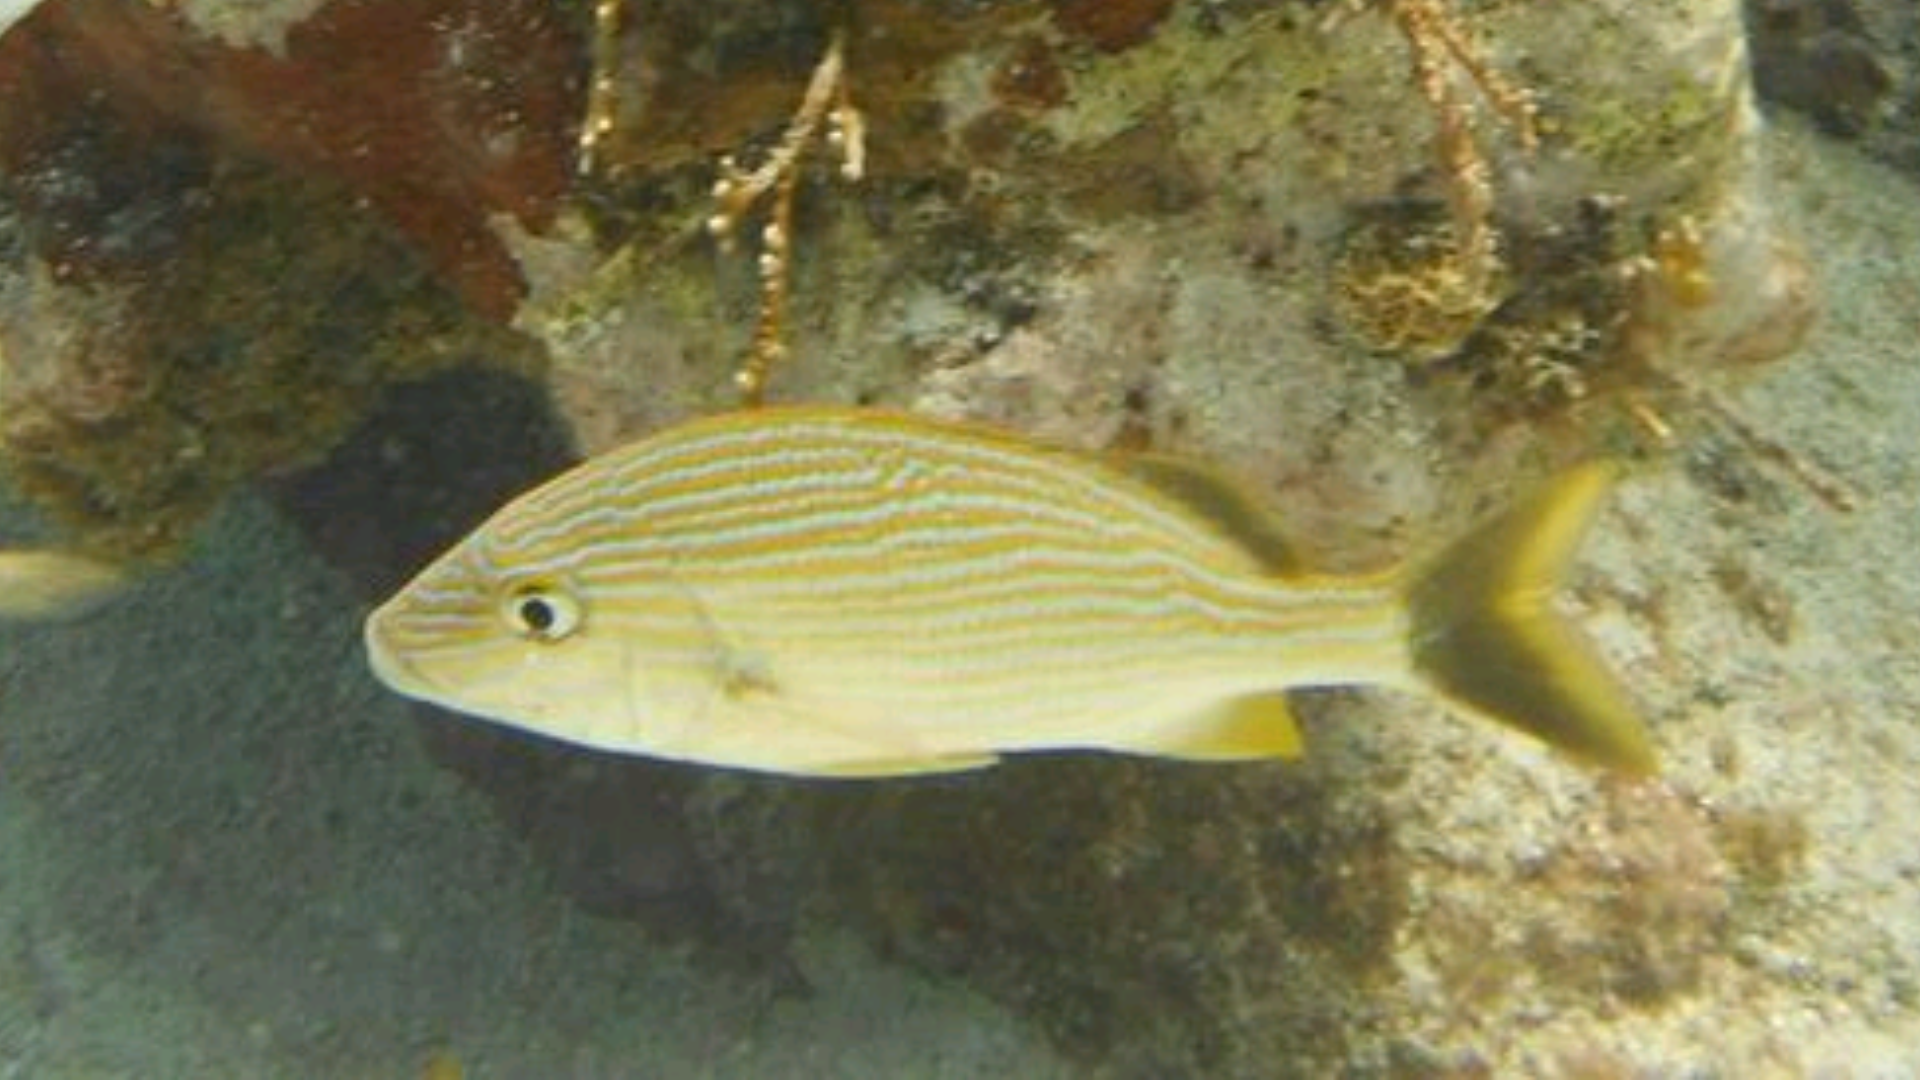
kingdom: Animalia
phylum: Chordata
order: Perciformes
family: Haemulidae
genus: Haemulon
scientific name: Haemulon sciurus
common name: Bluestriped grunt
